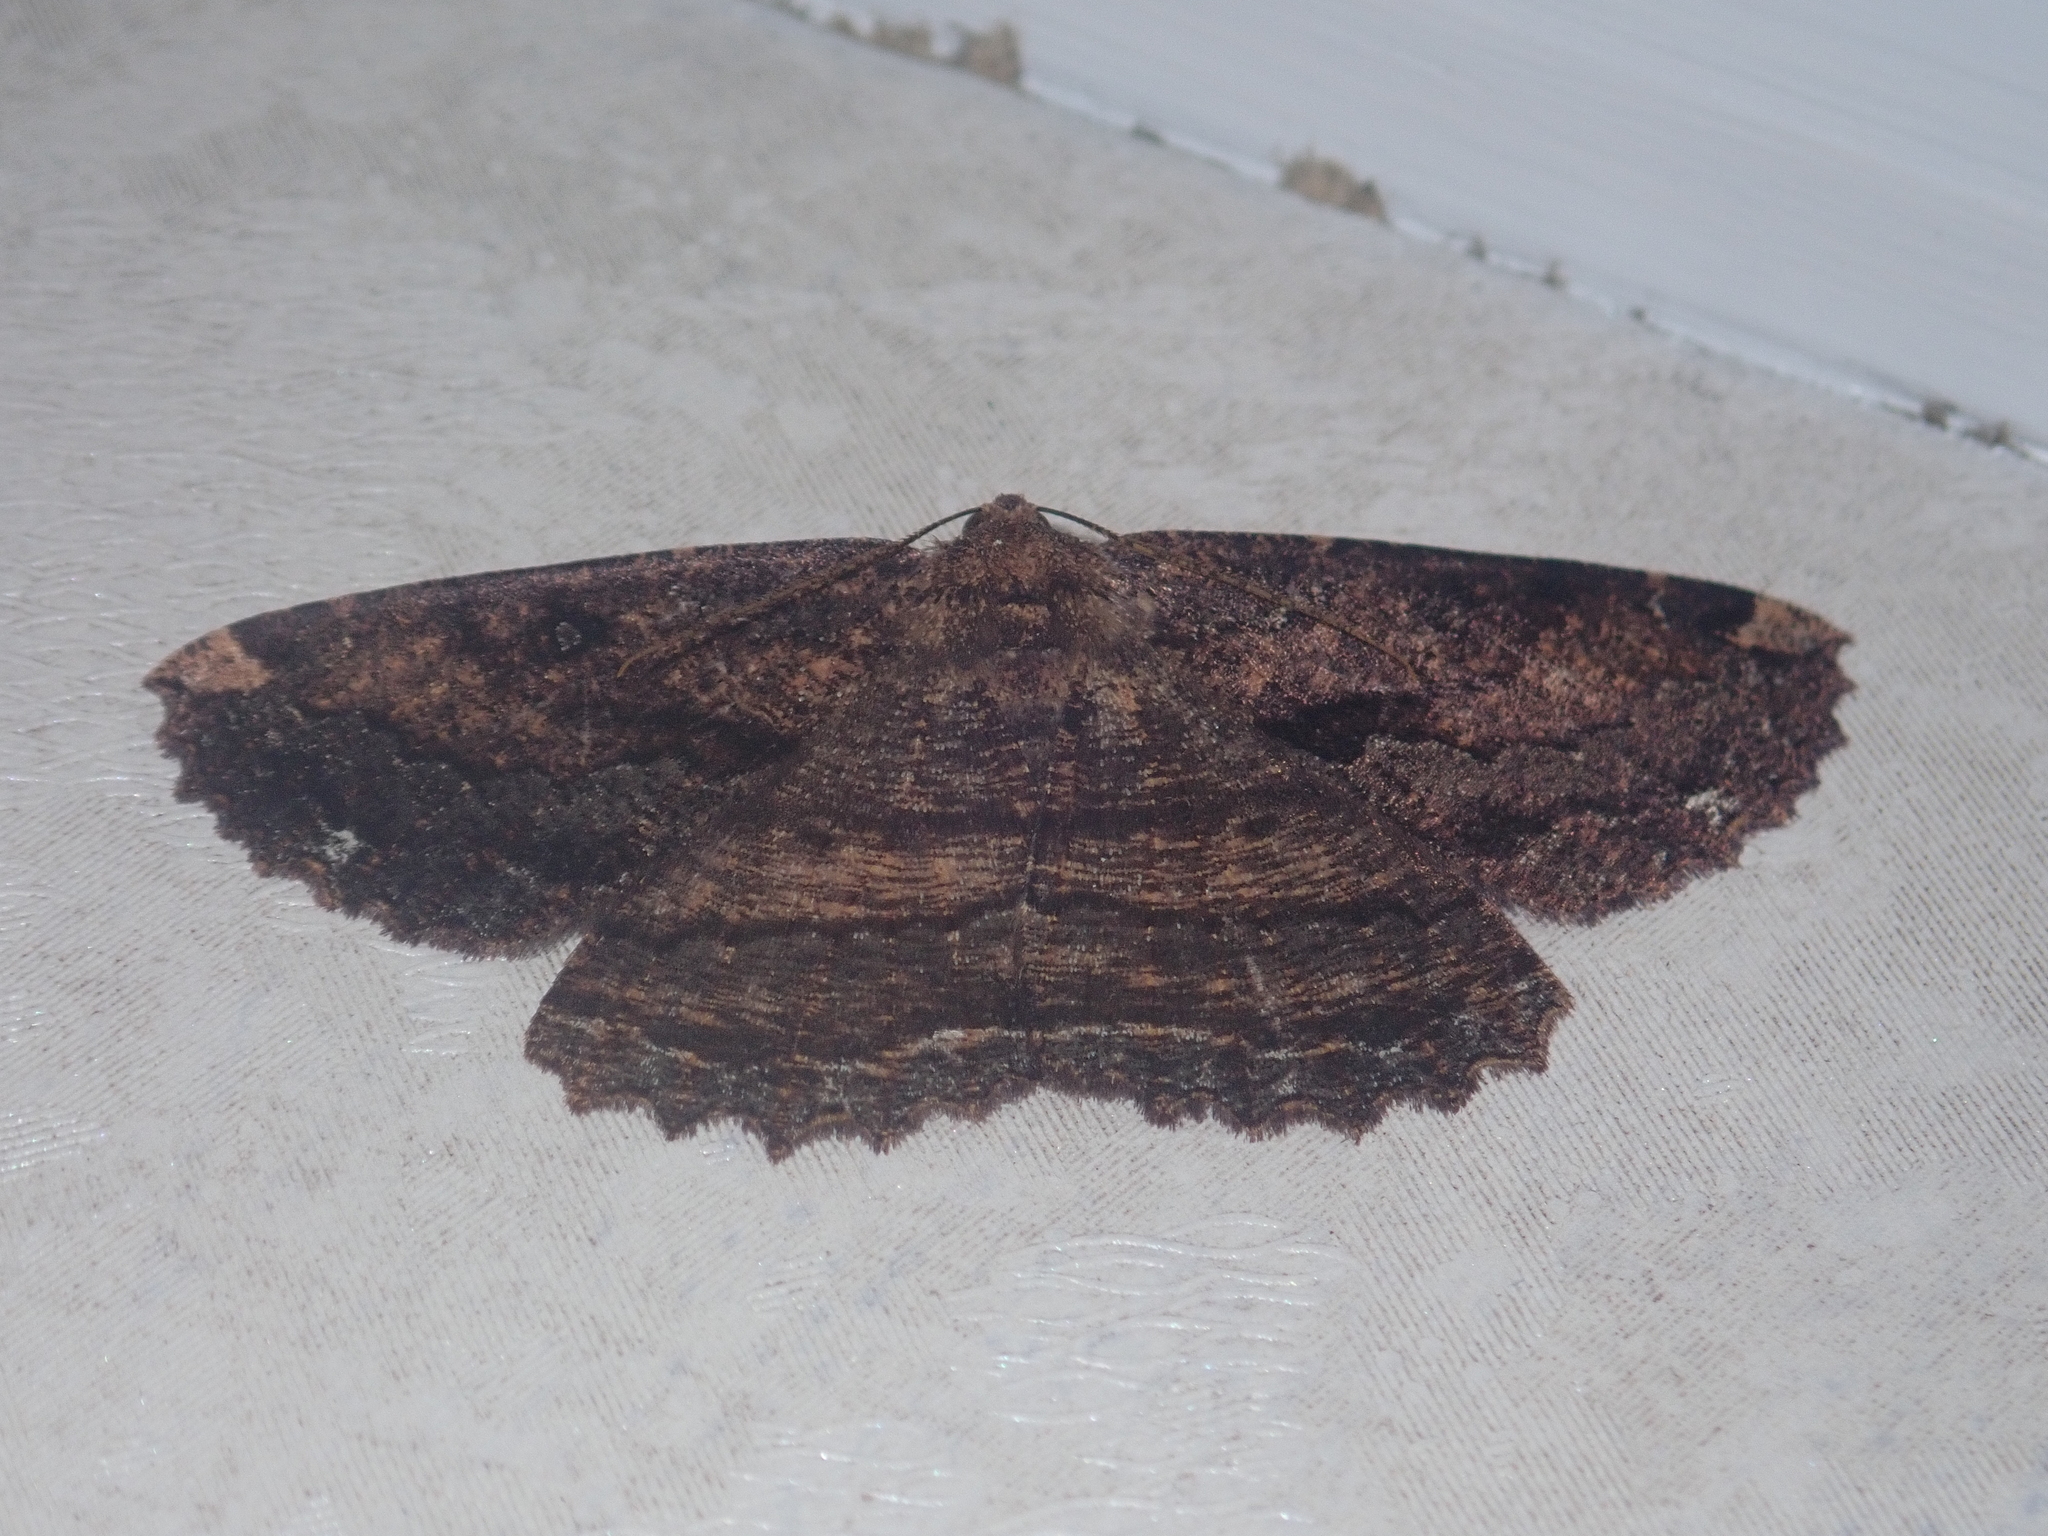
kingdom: Animalia
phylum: Arthropoda
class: Insecta
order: Lepidoptera
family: Geometridae
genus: Gellonia
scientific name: Gellonia dejectaria
